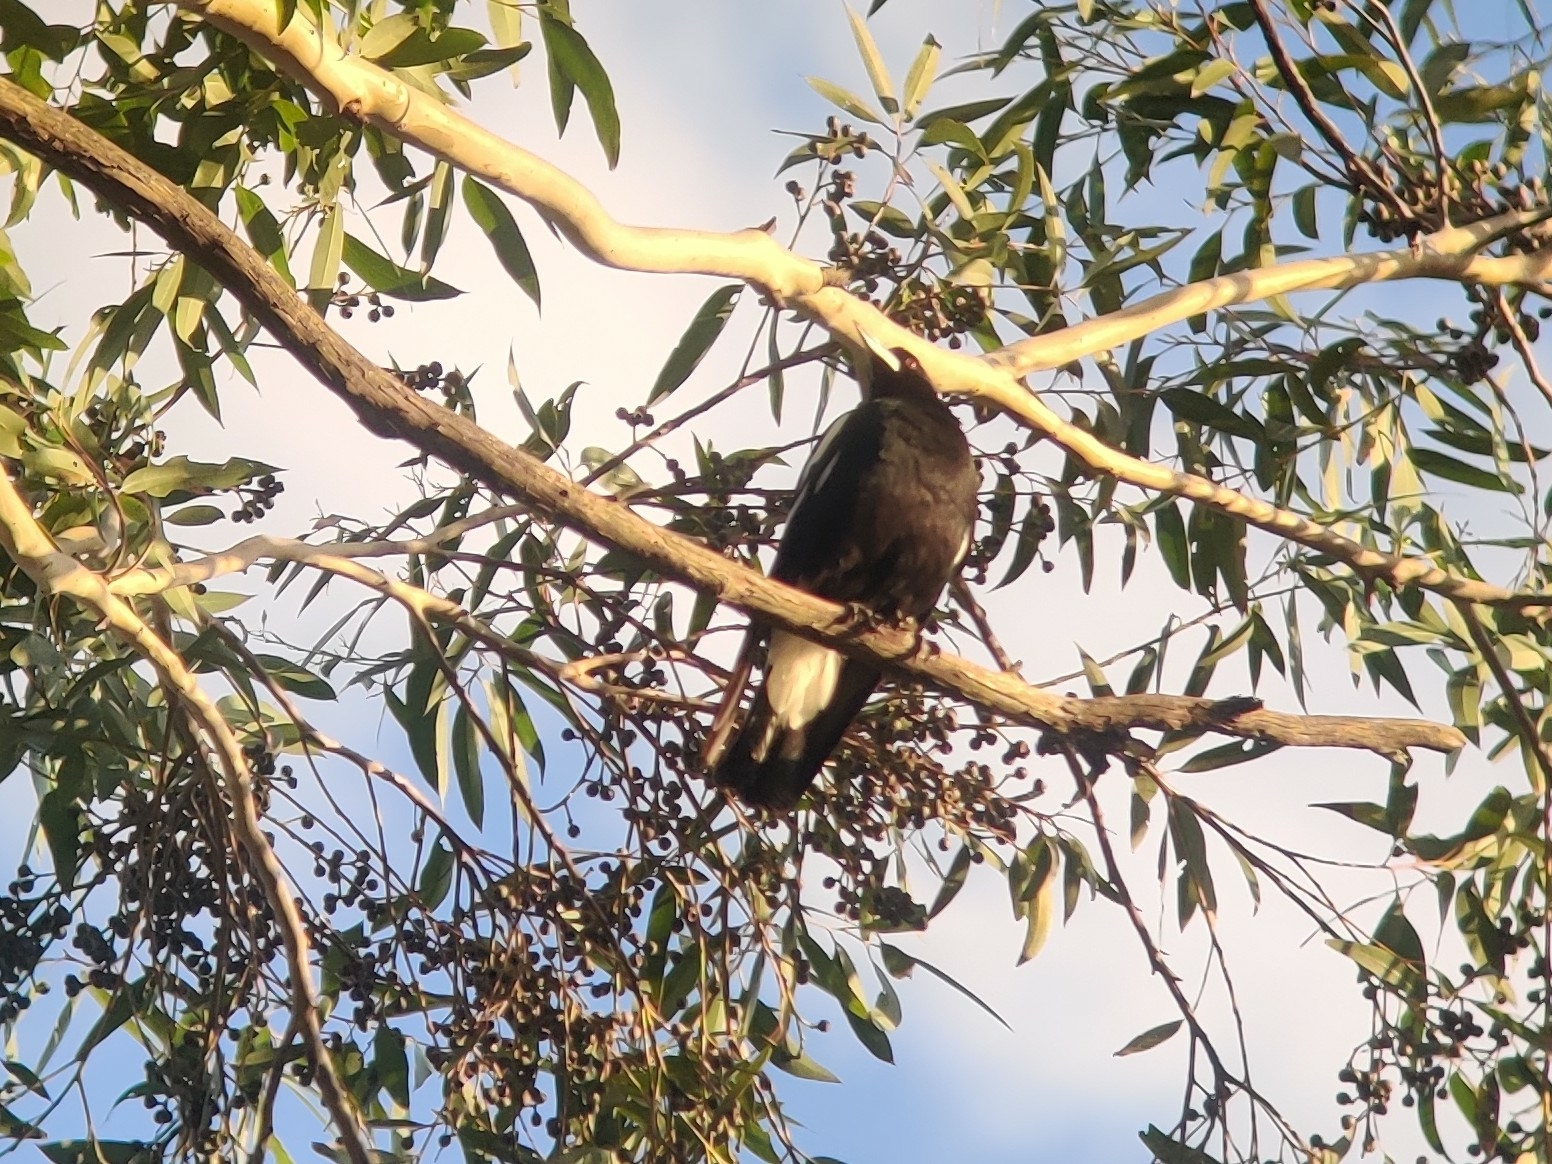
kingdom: Animalia
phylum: Chordata
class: Aves
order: Passeriformes
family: Cracticidae
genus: Gymnorhina
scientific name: Gymnorhina tibicen
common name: Australian magpie
